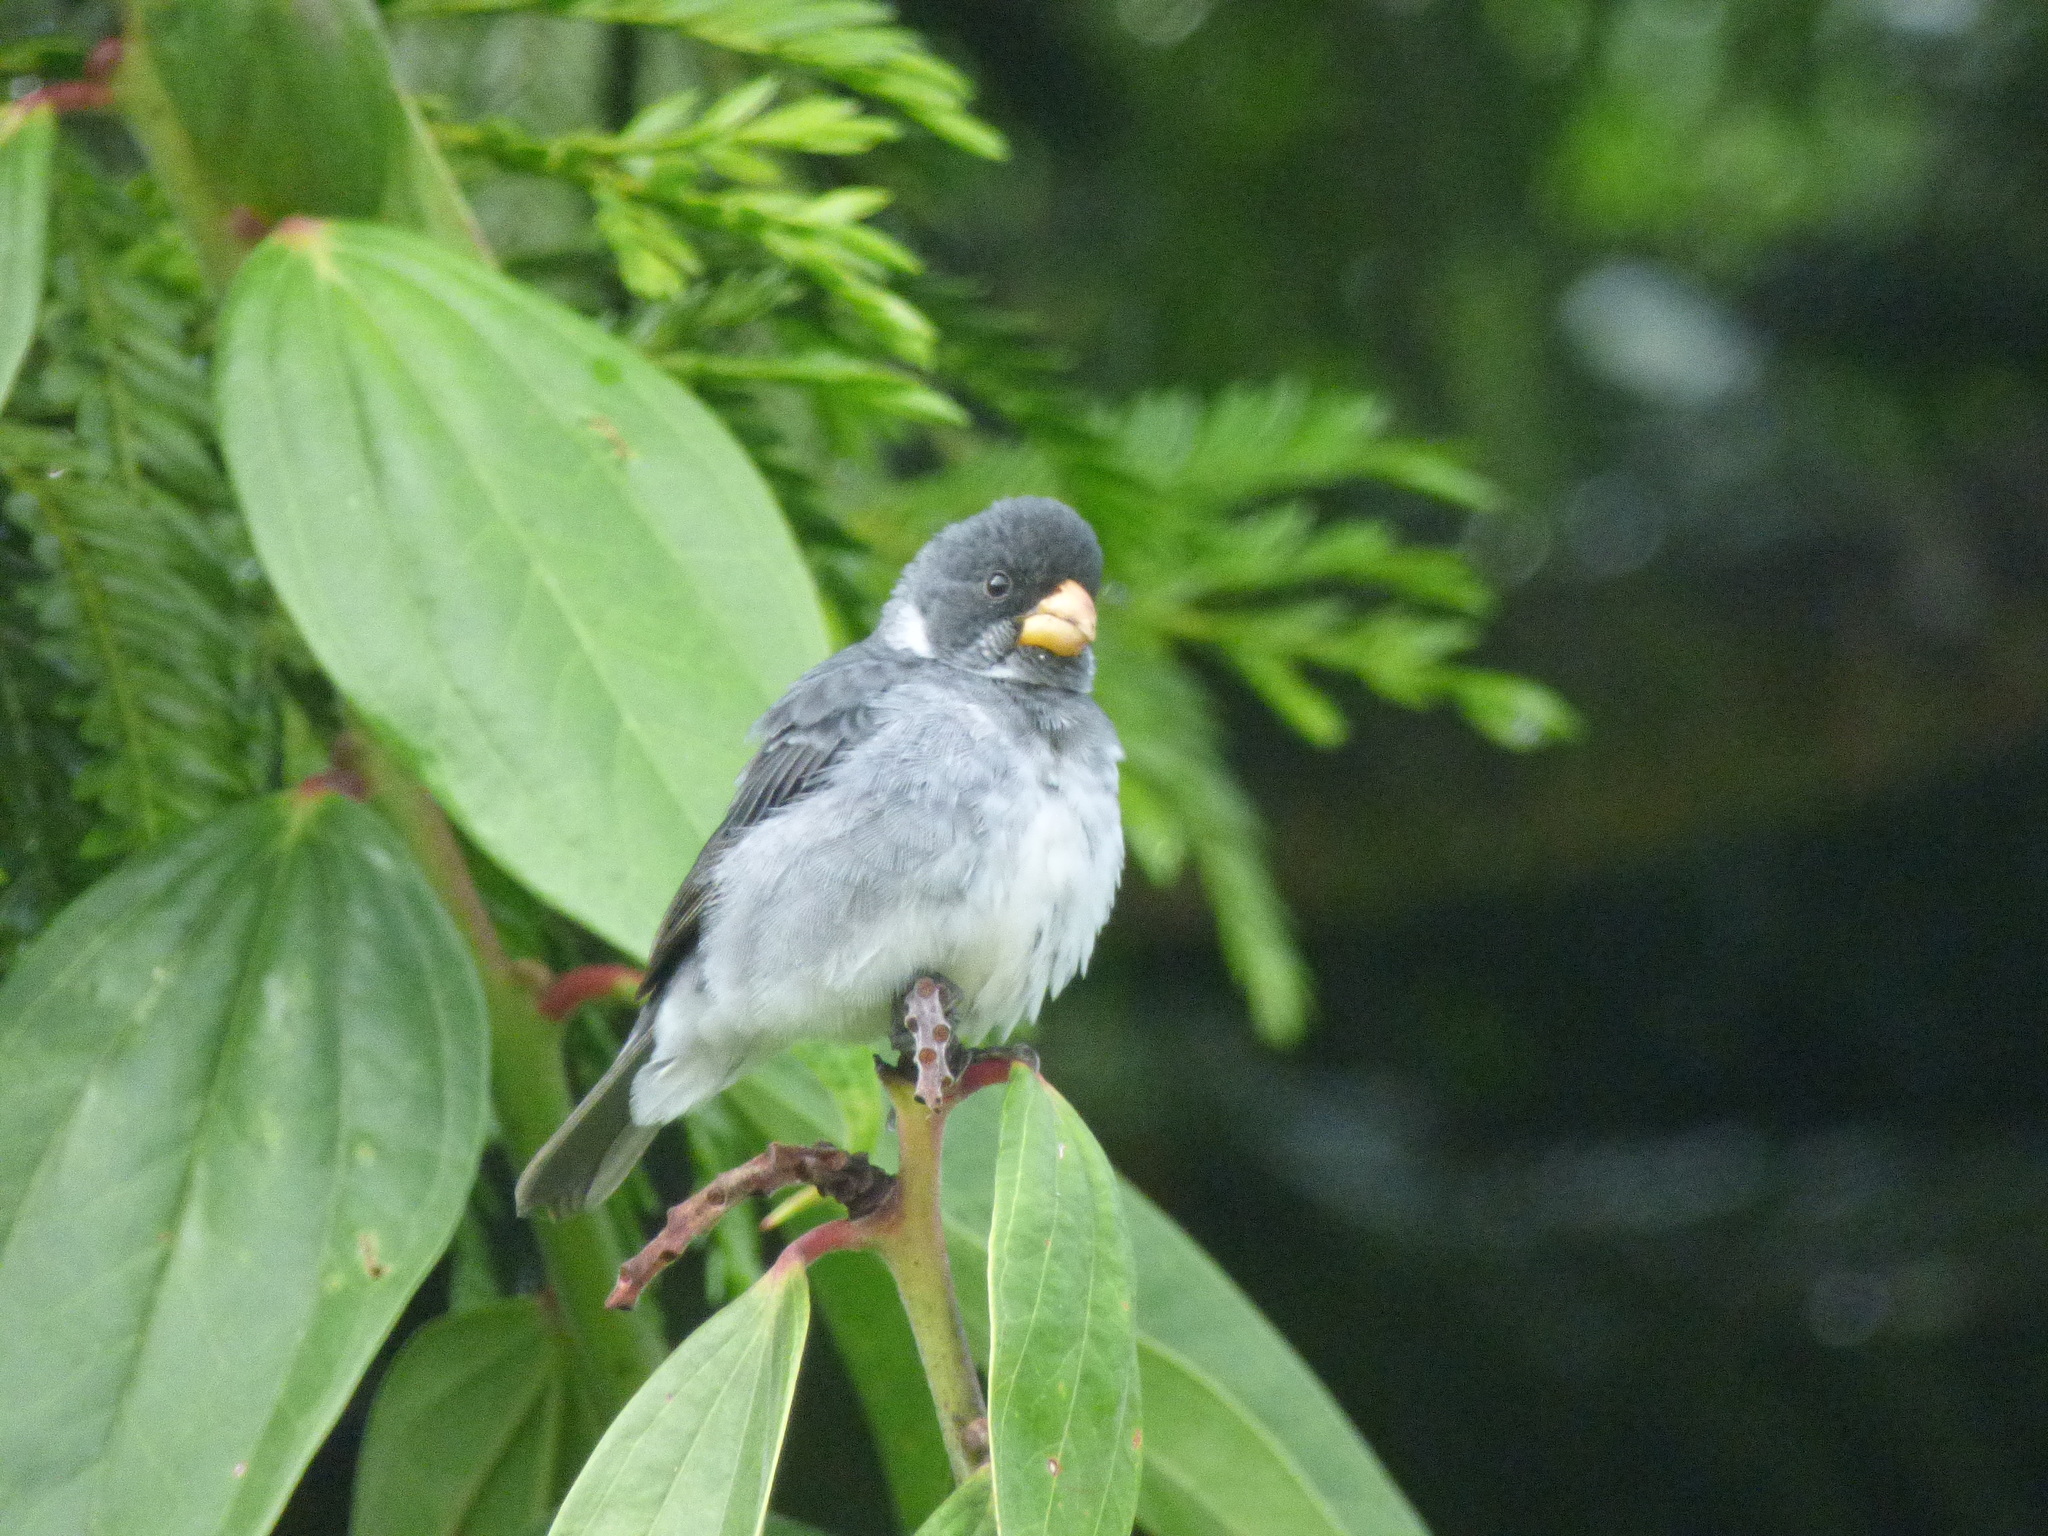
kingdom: Animalia
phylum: Chordata
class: Aves
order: Passeriformes
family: Thraupidae
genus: Sporophila
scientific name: Sporophila intermedia
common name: Grey seedeater
